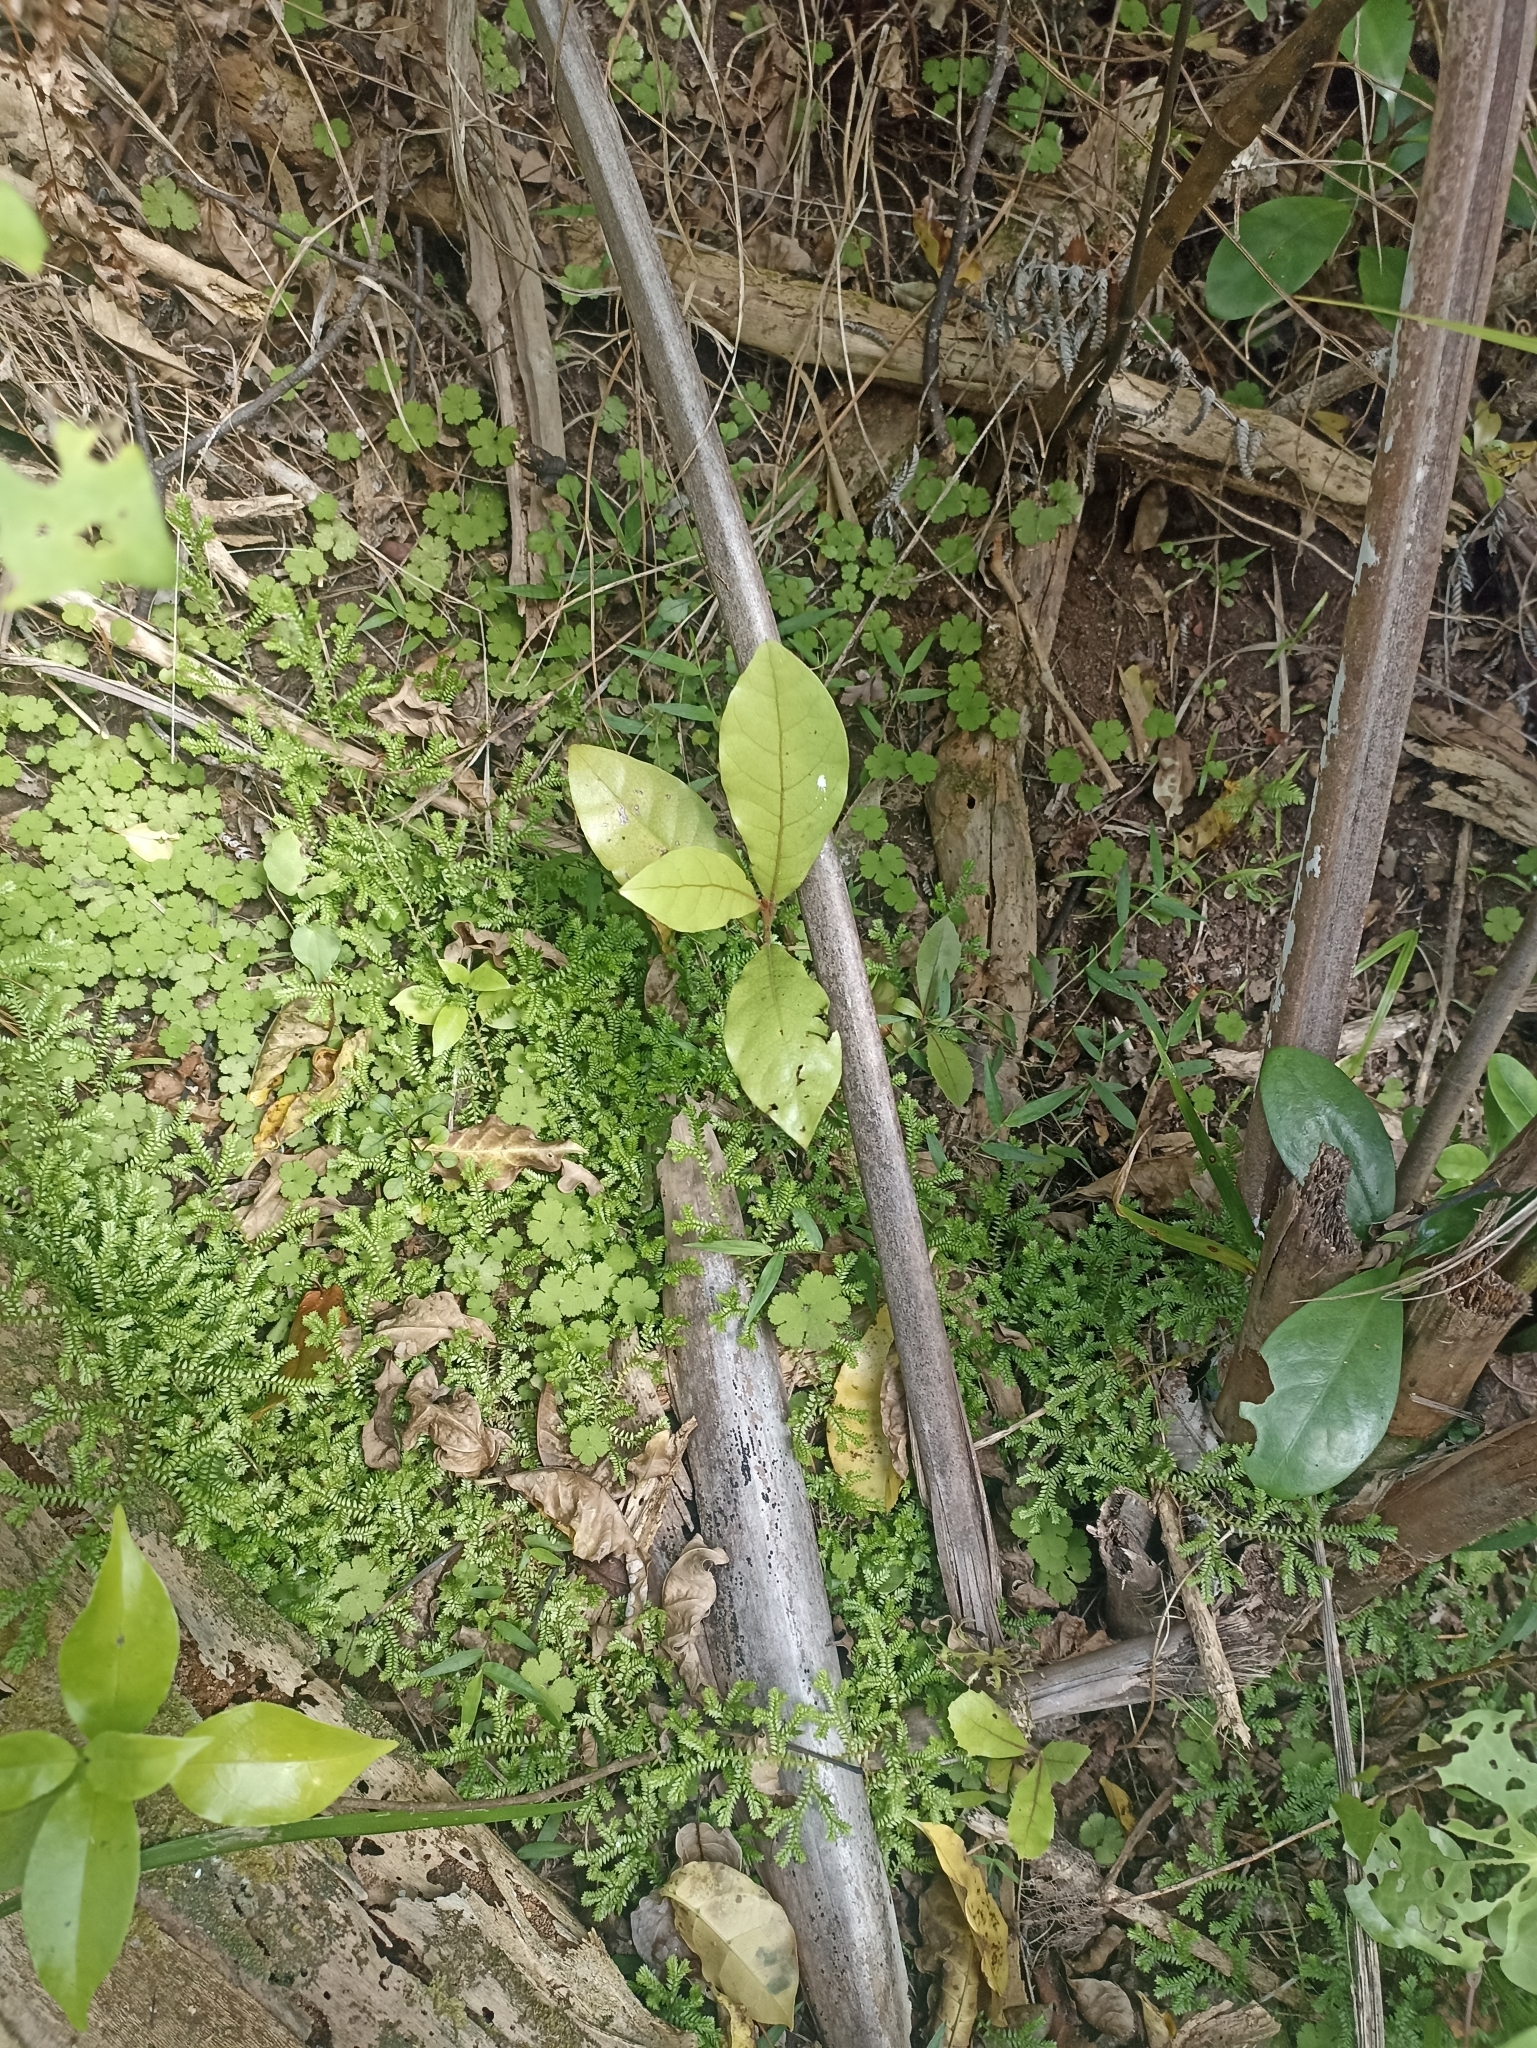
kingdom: Plantae
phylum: Tracheophyta
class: Magnoliopsida
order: Laurales
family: Lauraceae
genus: Beilschmiedia
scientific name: Beilschmiedia tarairi
